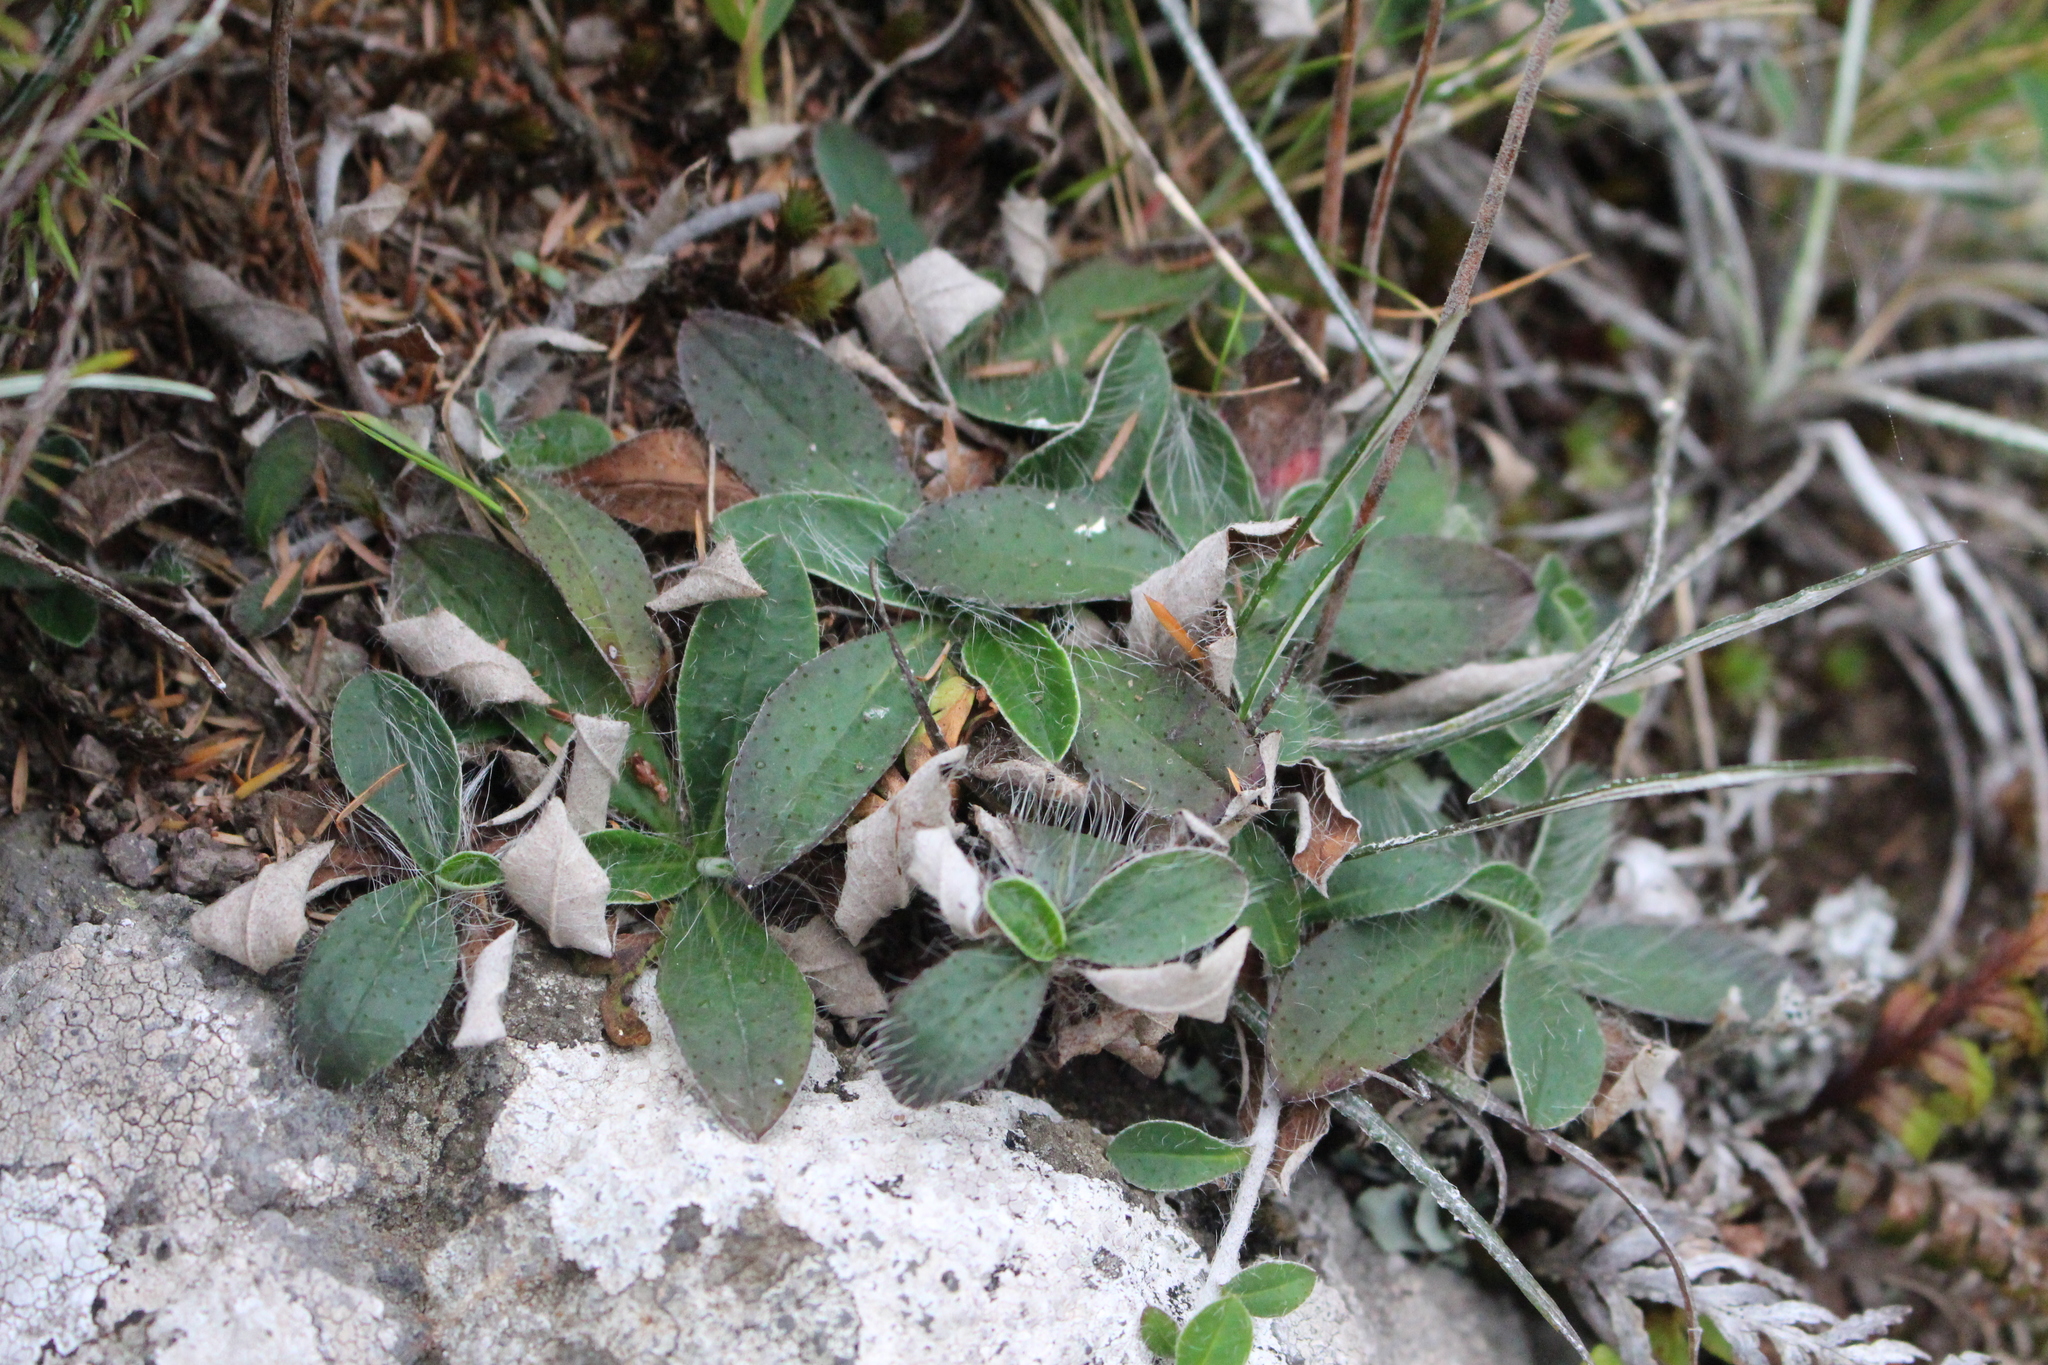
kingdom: Plantae
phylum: Tracheophyta
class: Magnoliopsida
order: Asterales
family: Asteraceae
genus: Pilosella
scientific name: Pilosella officinarum
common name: Mouse-ear hawkweed
